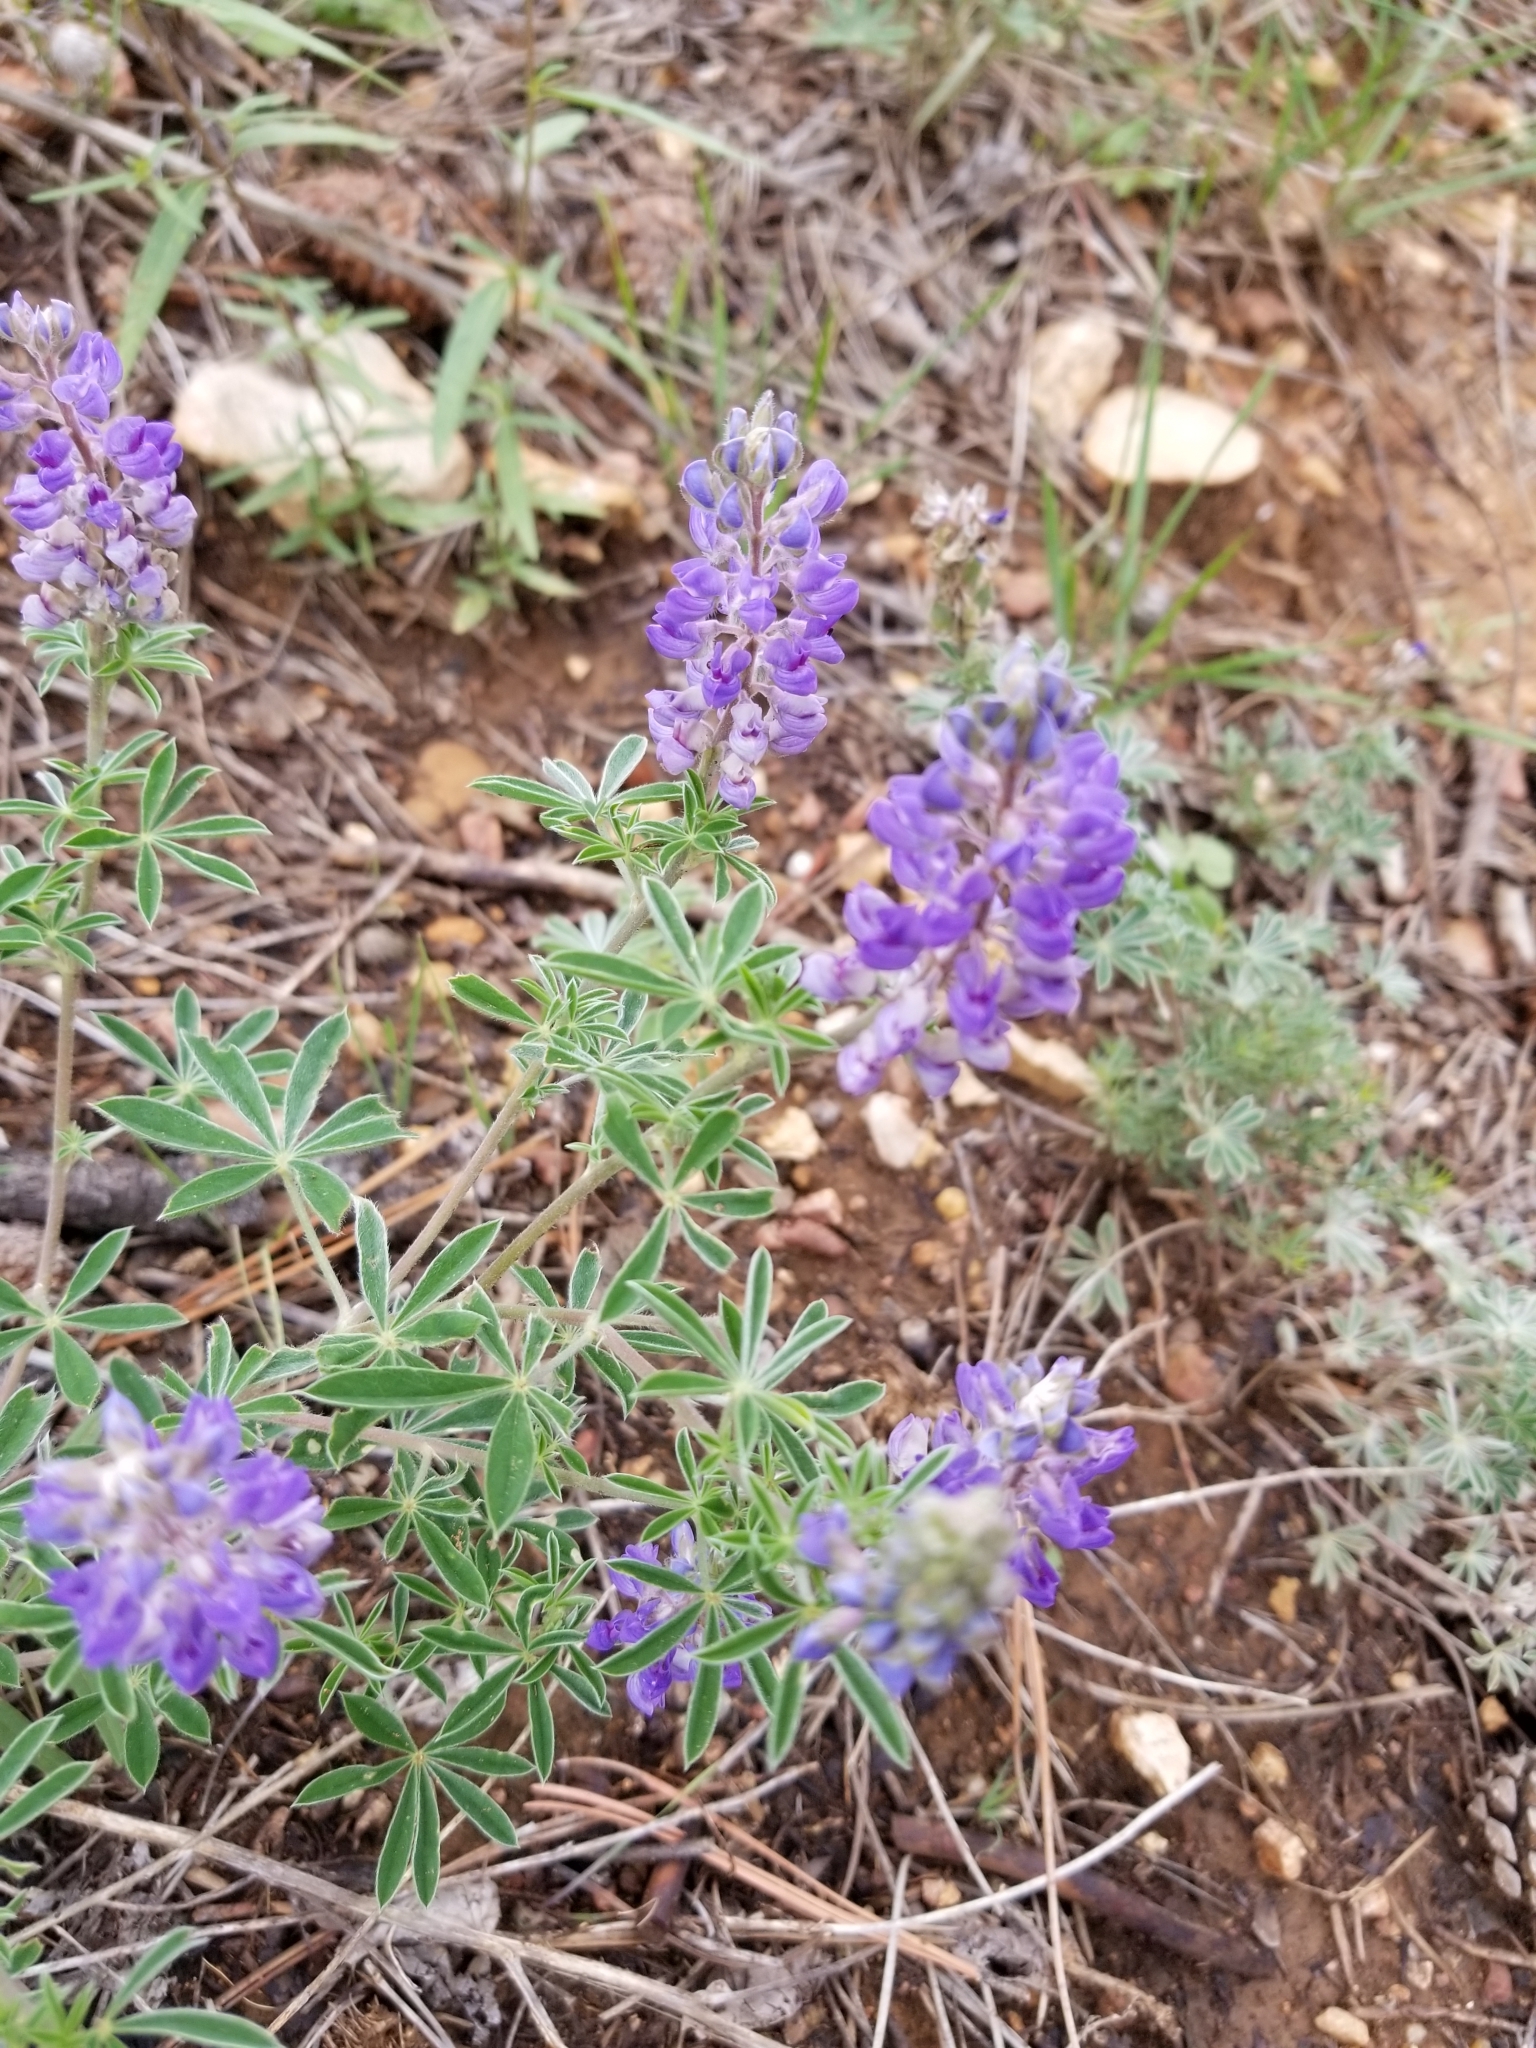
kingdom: Plantae
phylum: Tracheophyta
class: Magnoliopsida
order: Fabales
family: Fabaceae
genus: Lupinus
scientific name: Lupinus argenteus
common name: Silvery lupine
